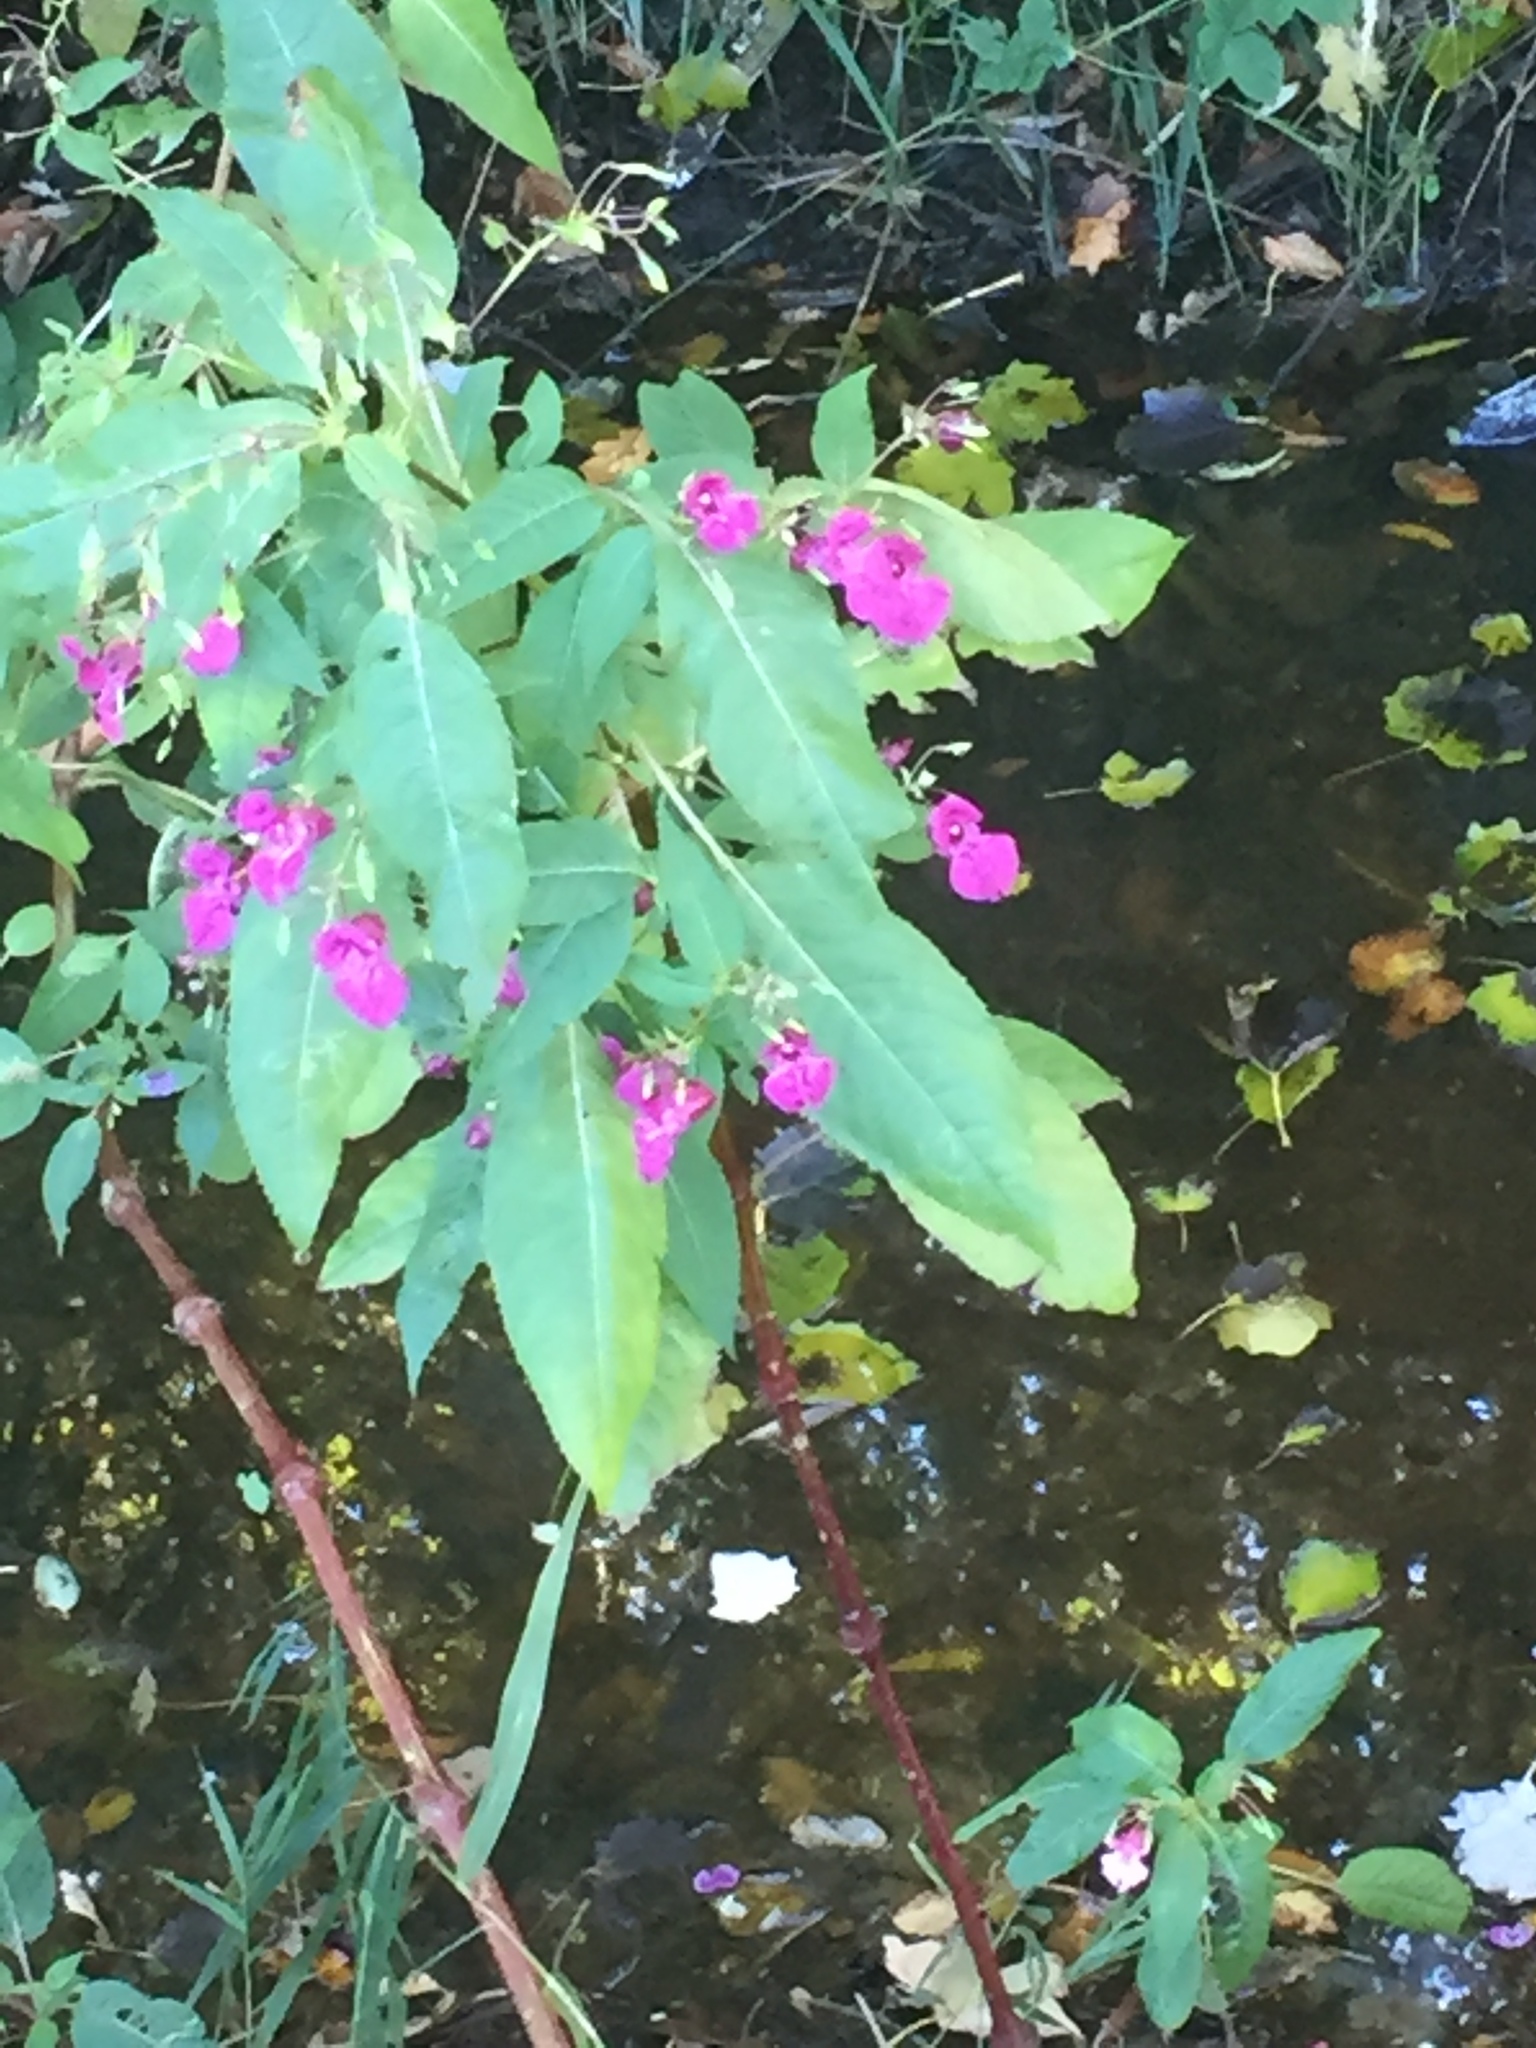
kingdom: Plantae
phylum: Tracheophyta
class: Magnoliopsida
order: Ericales
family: Balsaminaceae
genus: Impatiens
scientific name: Impatiens glandulifera
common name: Himalayan balsam
